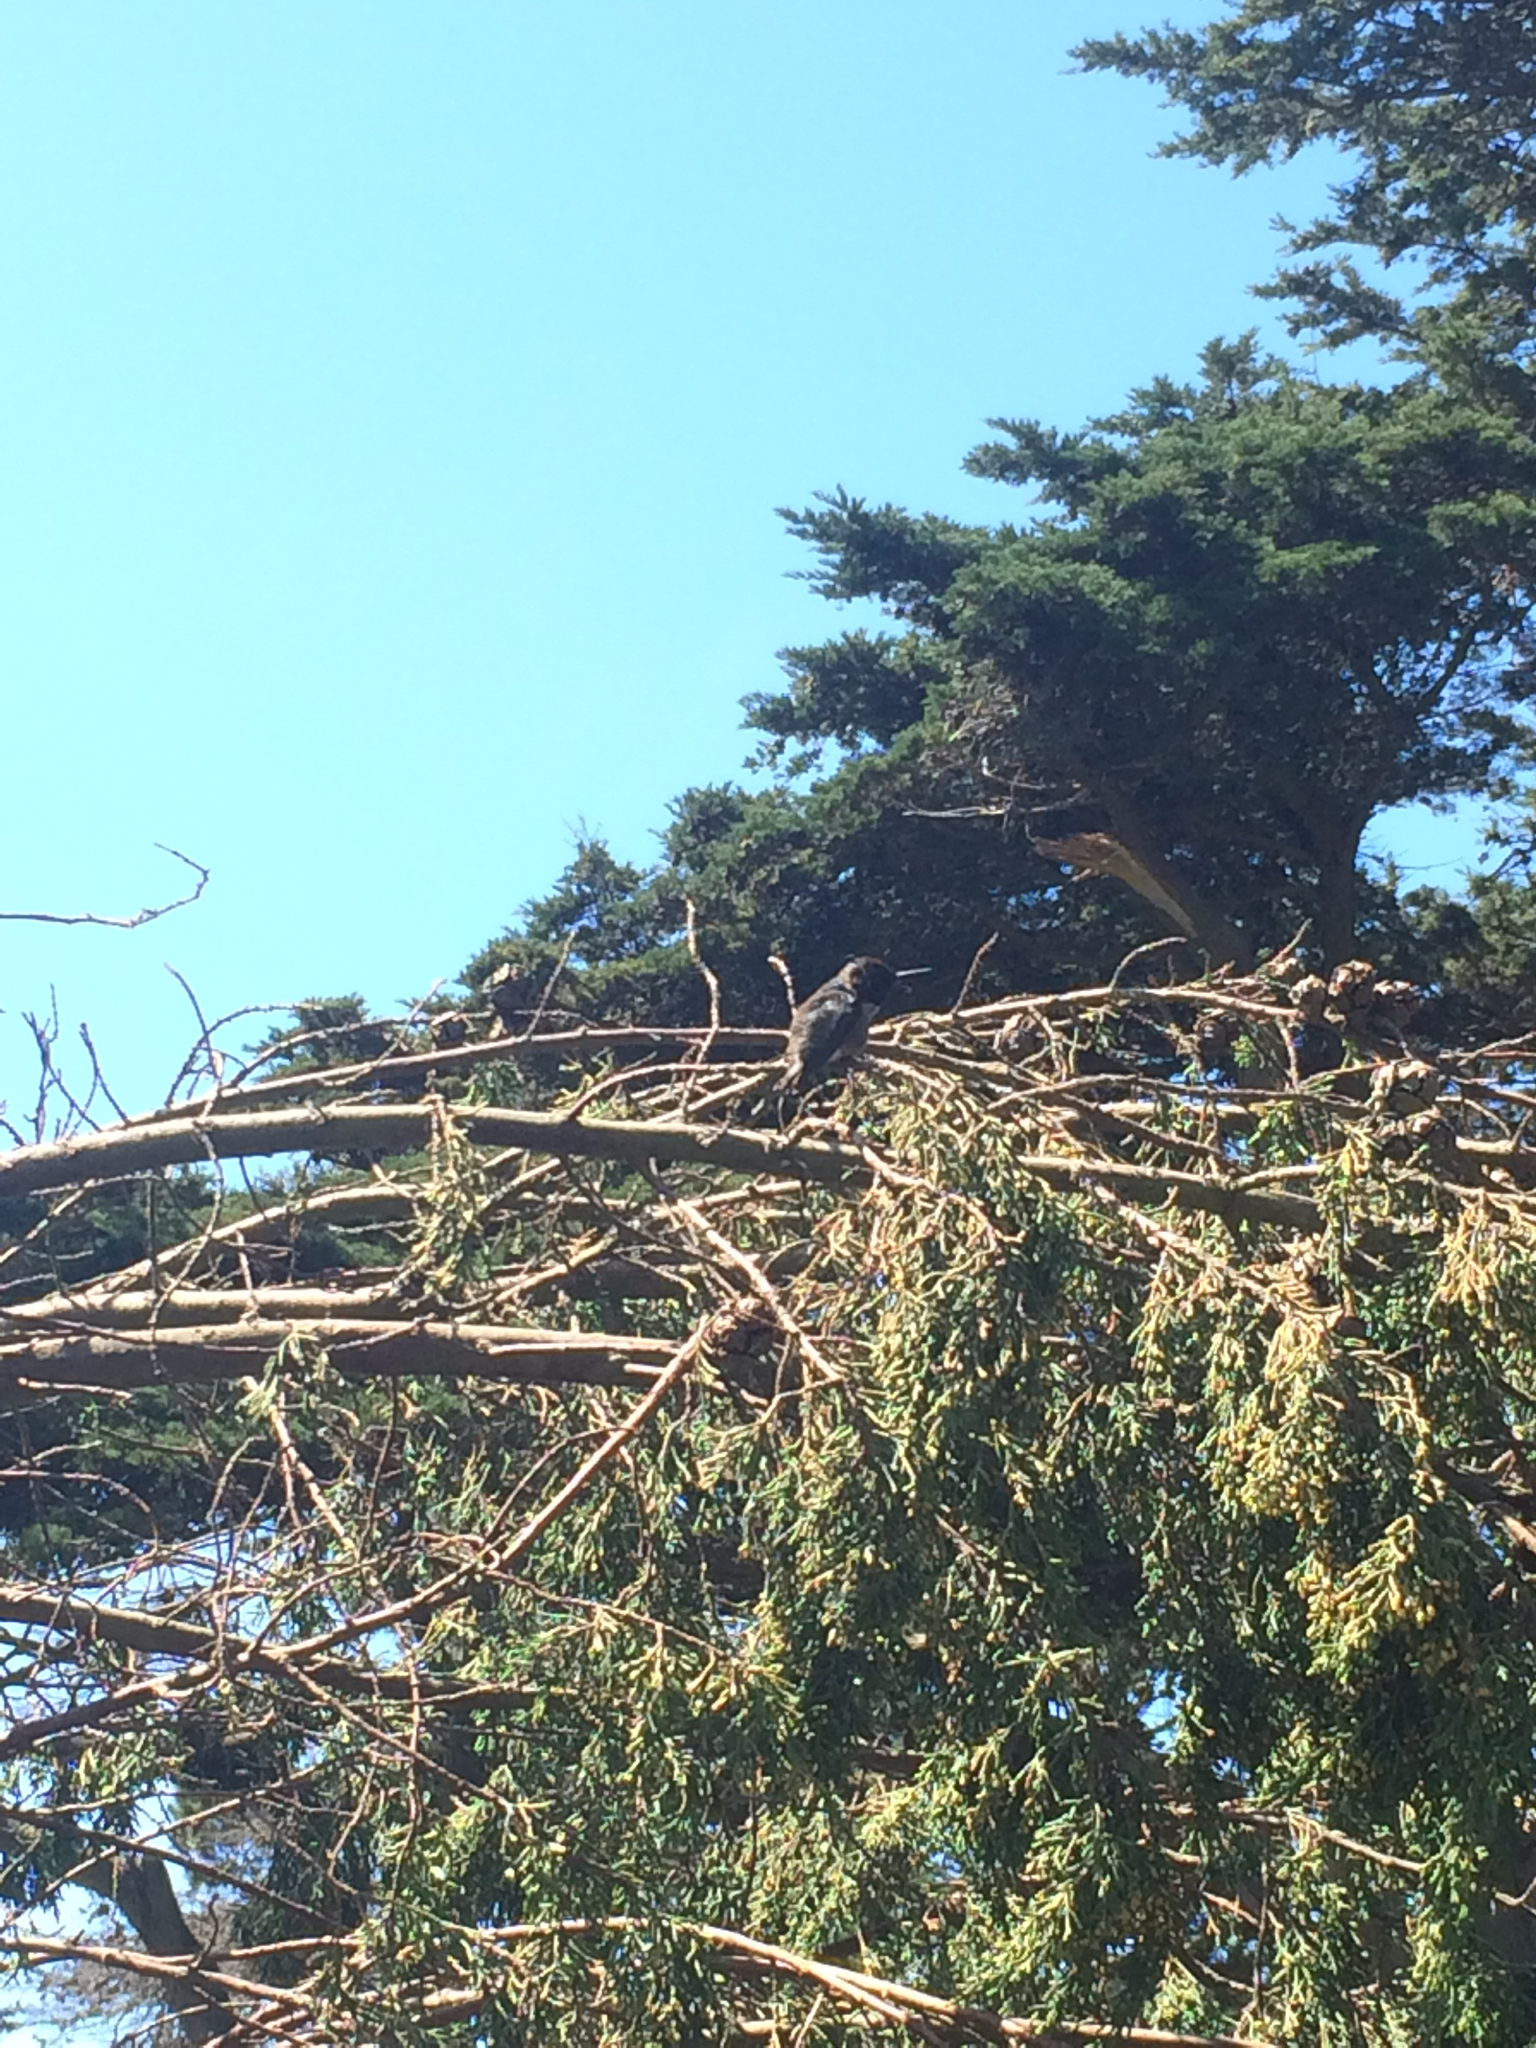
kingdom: Animalia
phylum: Chordata
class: Aves
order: Apodiformes
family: Trochilidae
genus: Calypte
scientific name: Calypte anna
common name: Anna's hummingbird
